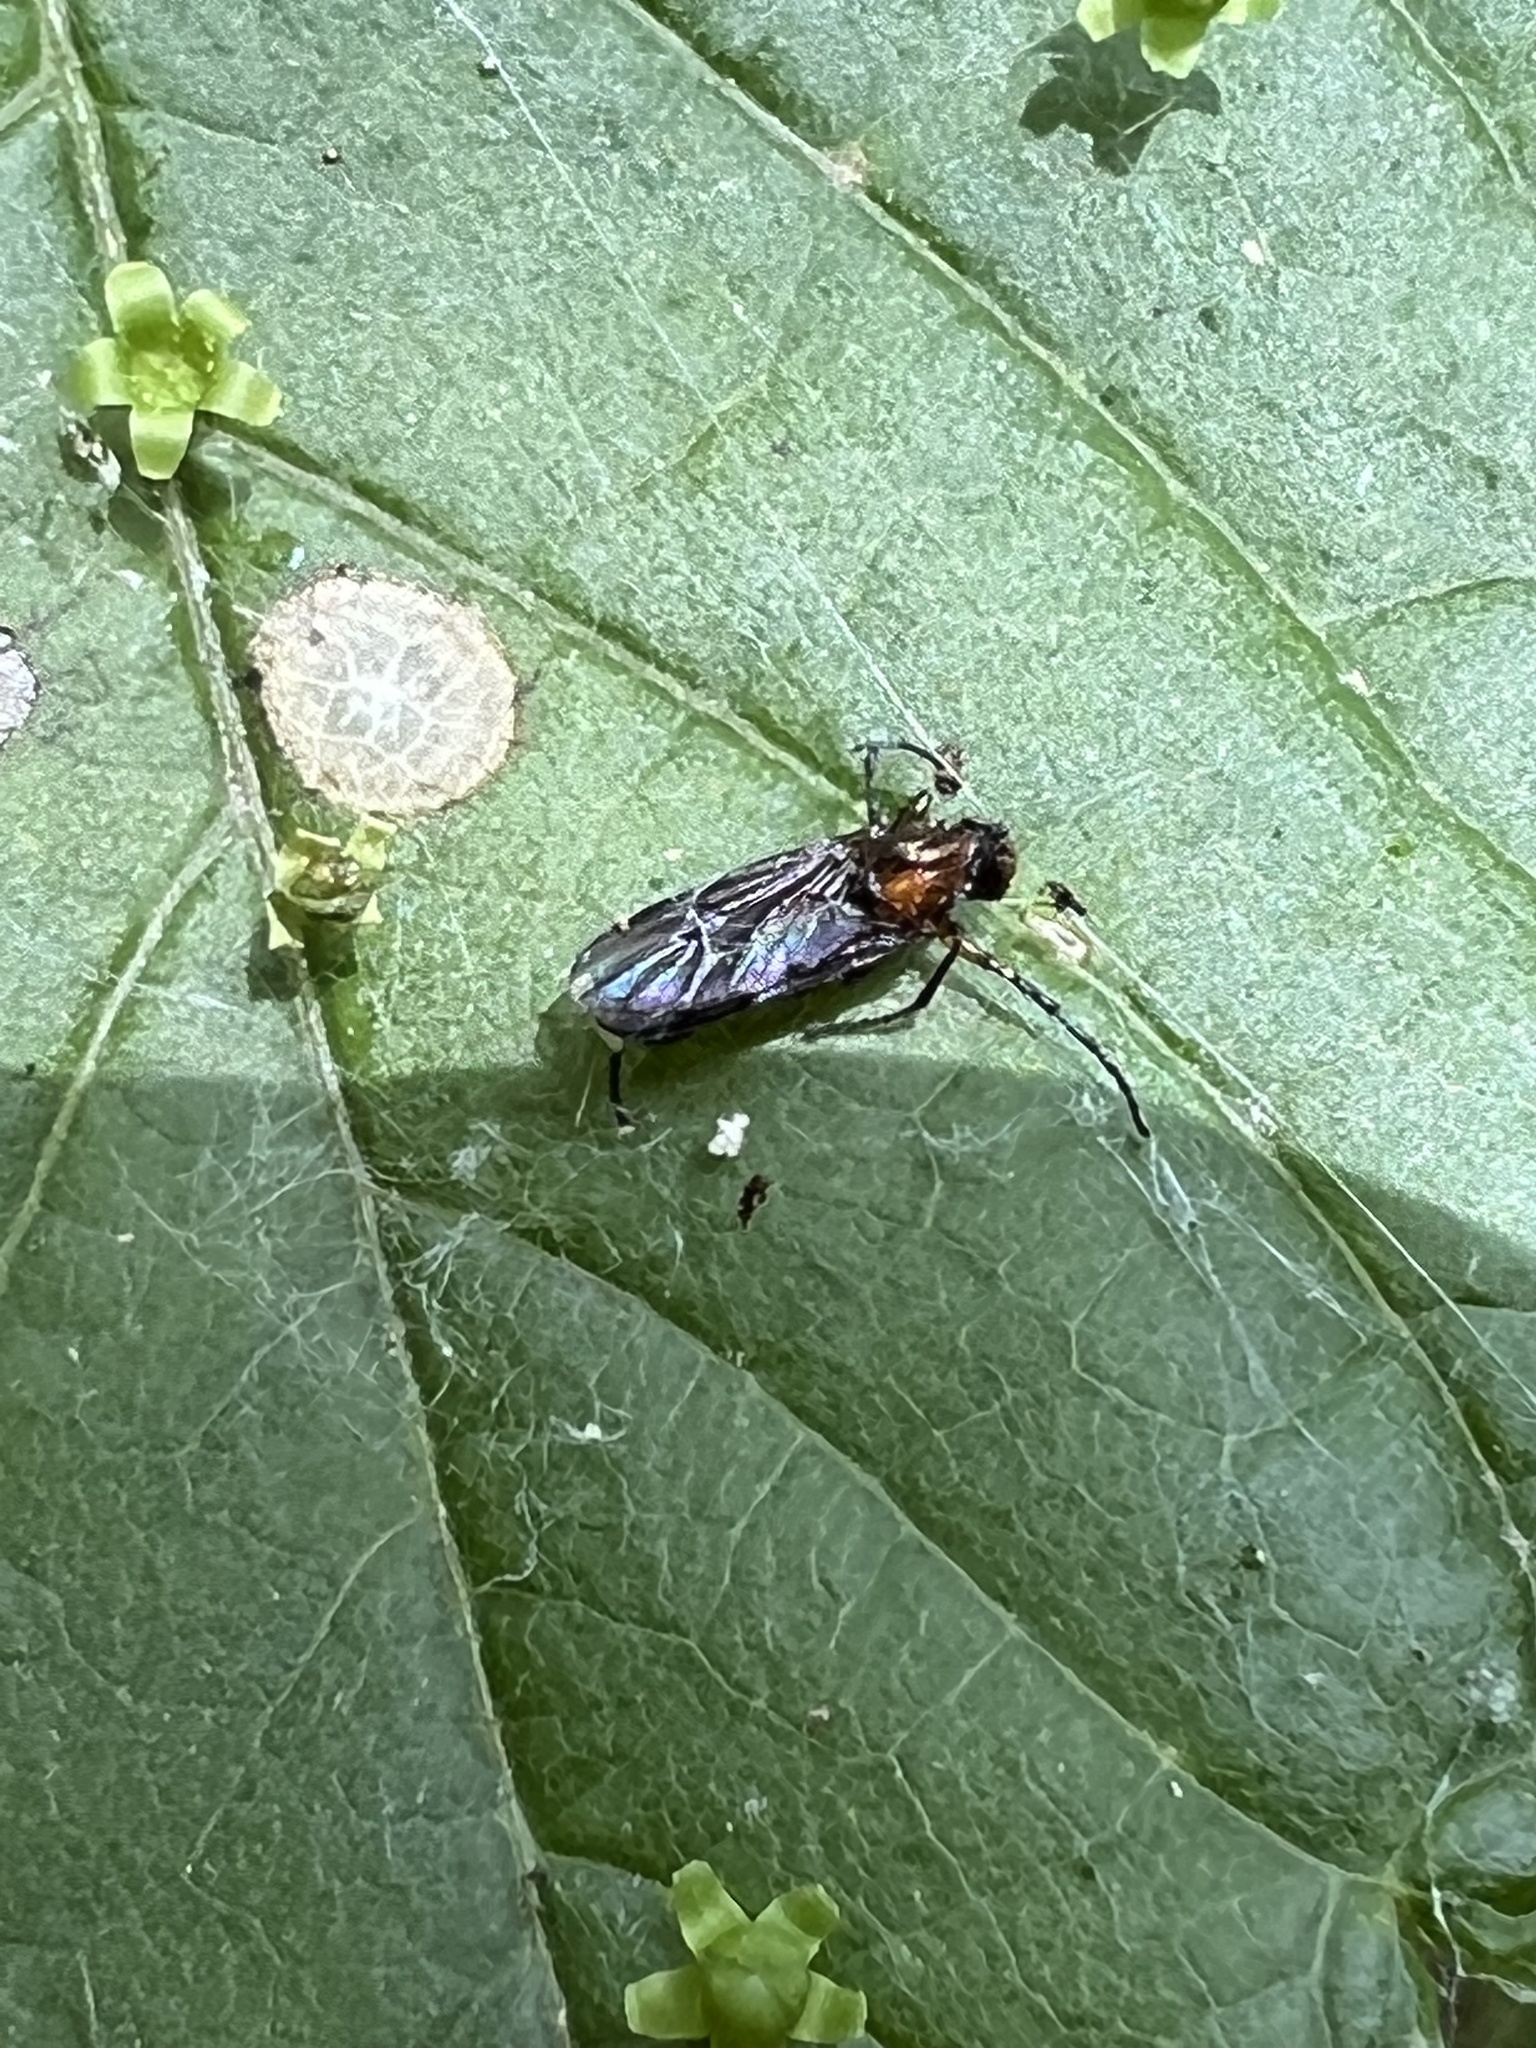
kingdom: Animalia
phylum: Arthropoda
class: Insecta
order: Diptera
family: Bibionidae
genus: Dilophus
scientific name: Dilophus spinipes
